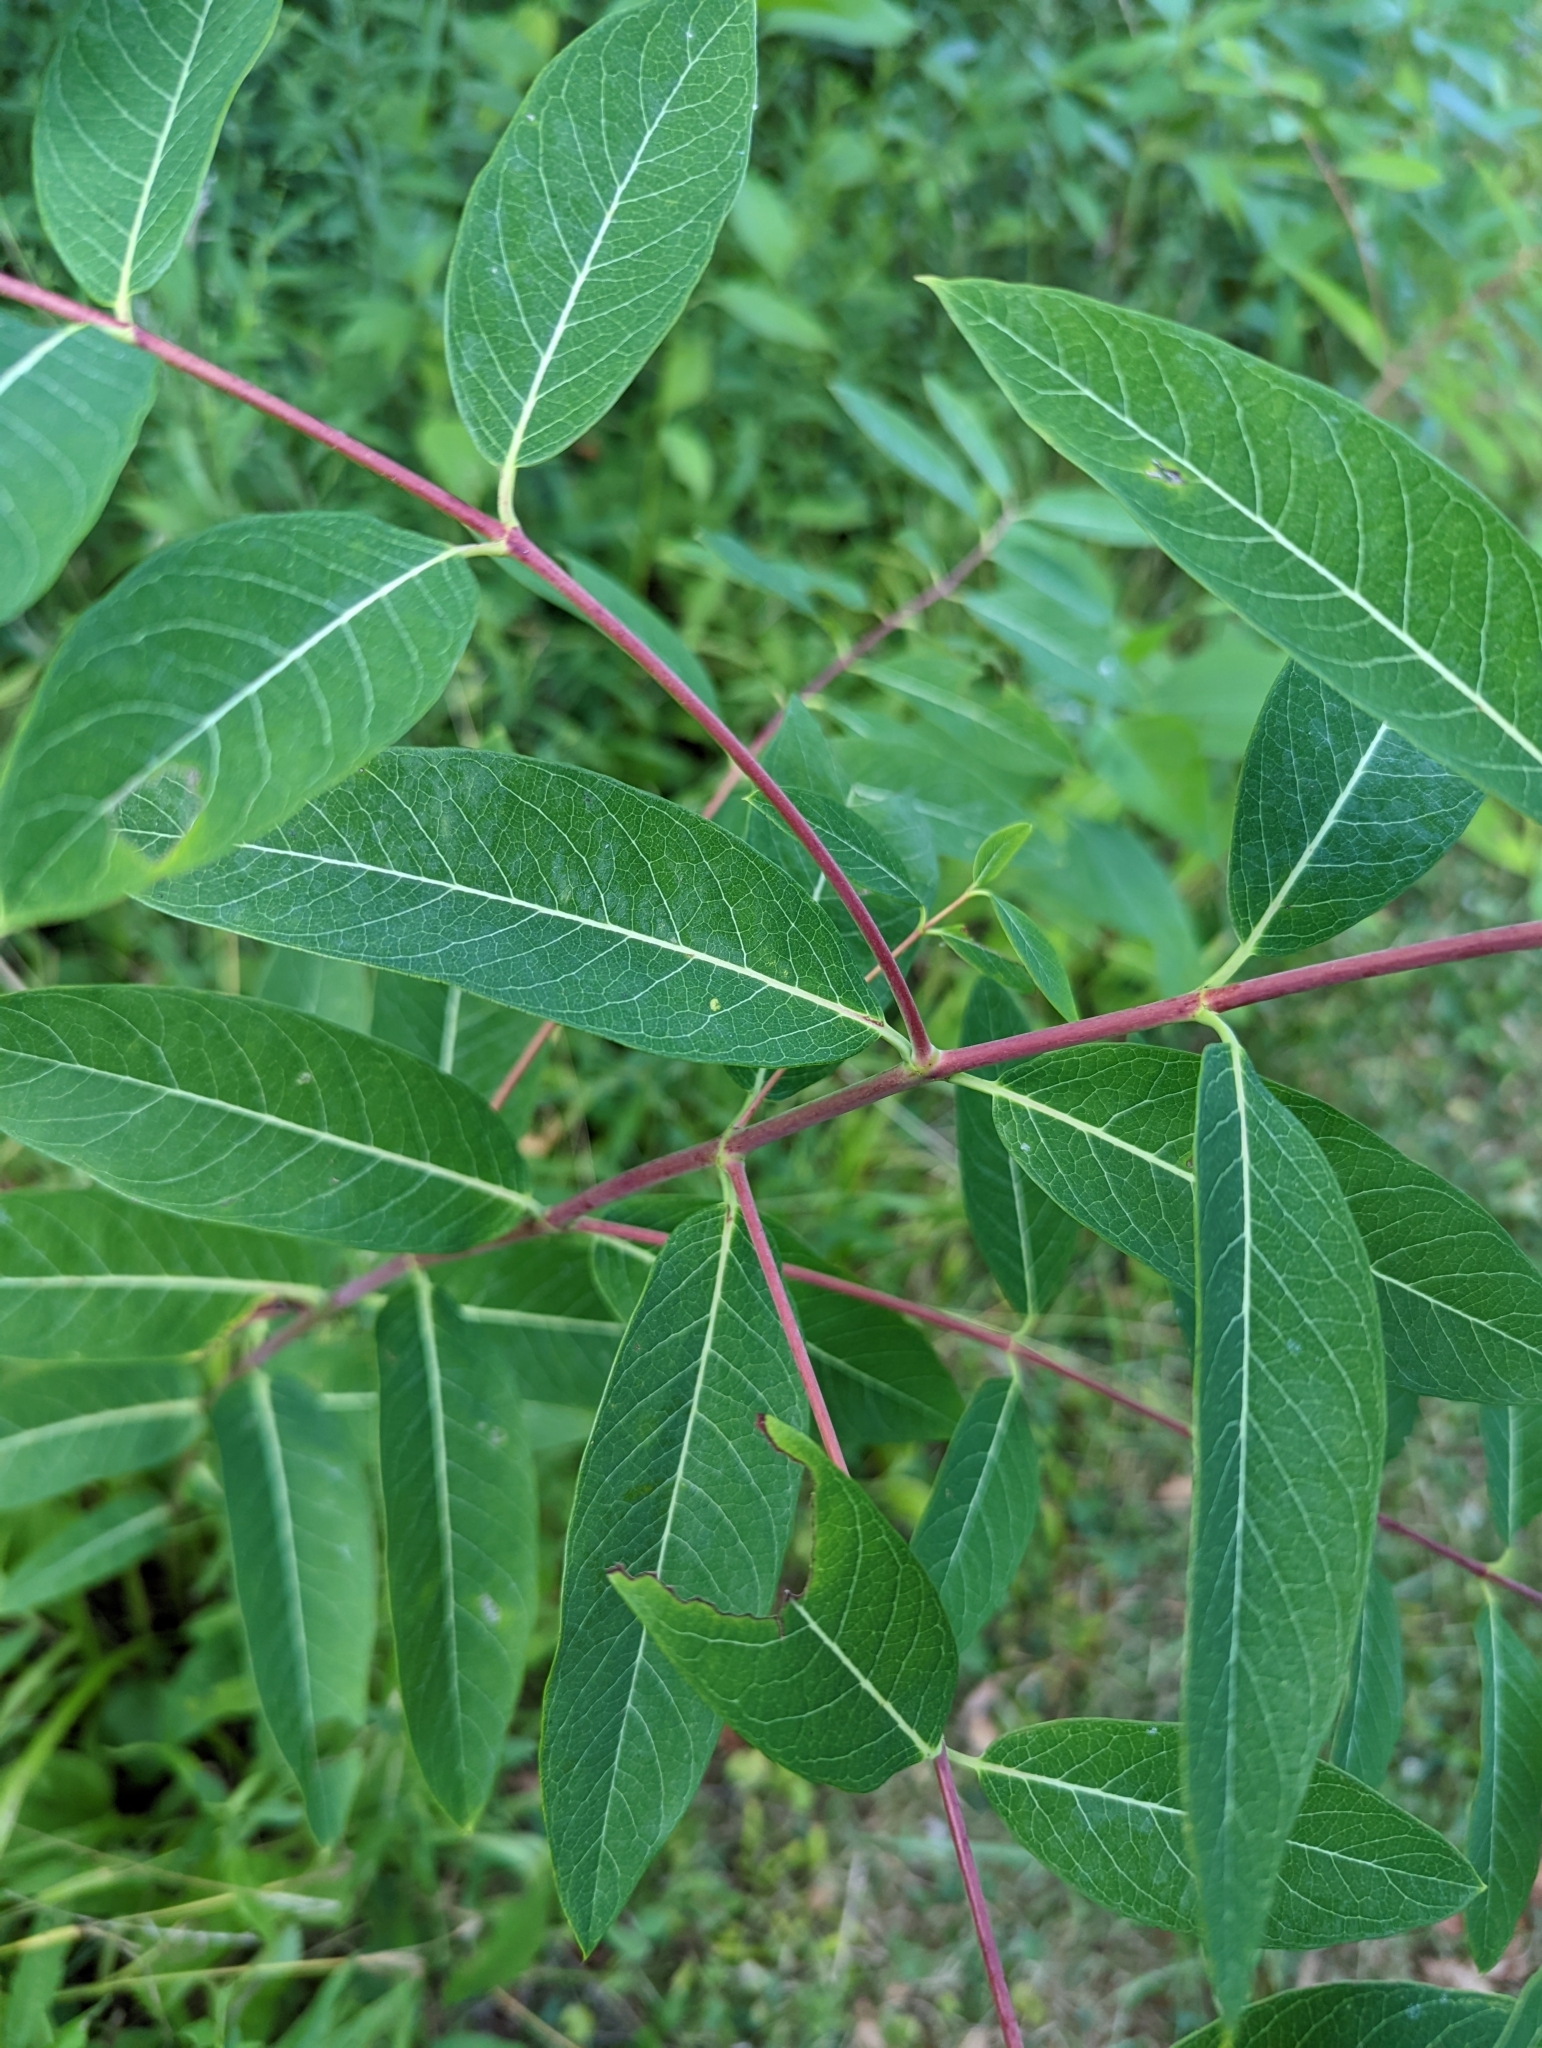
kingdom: Plantae
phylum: Tracheophyta
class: Magnoliopsida
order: Gentianales
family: Apocynaceae
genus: Apocynum
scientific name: Apocynum cannabinum
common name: Hemp dogbane
